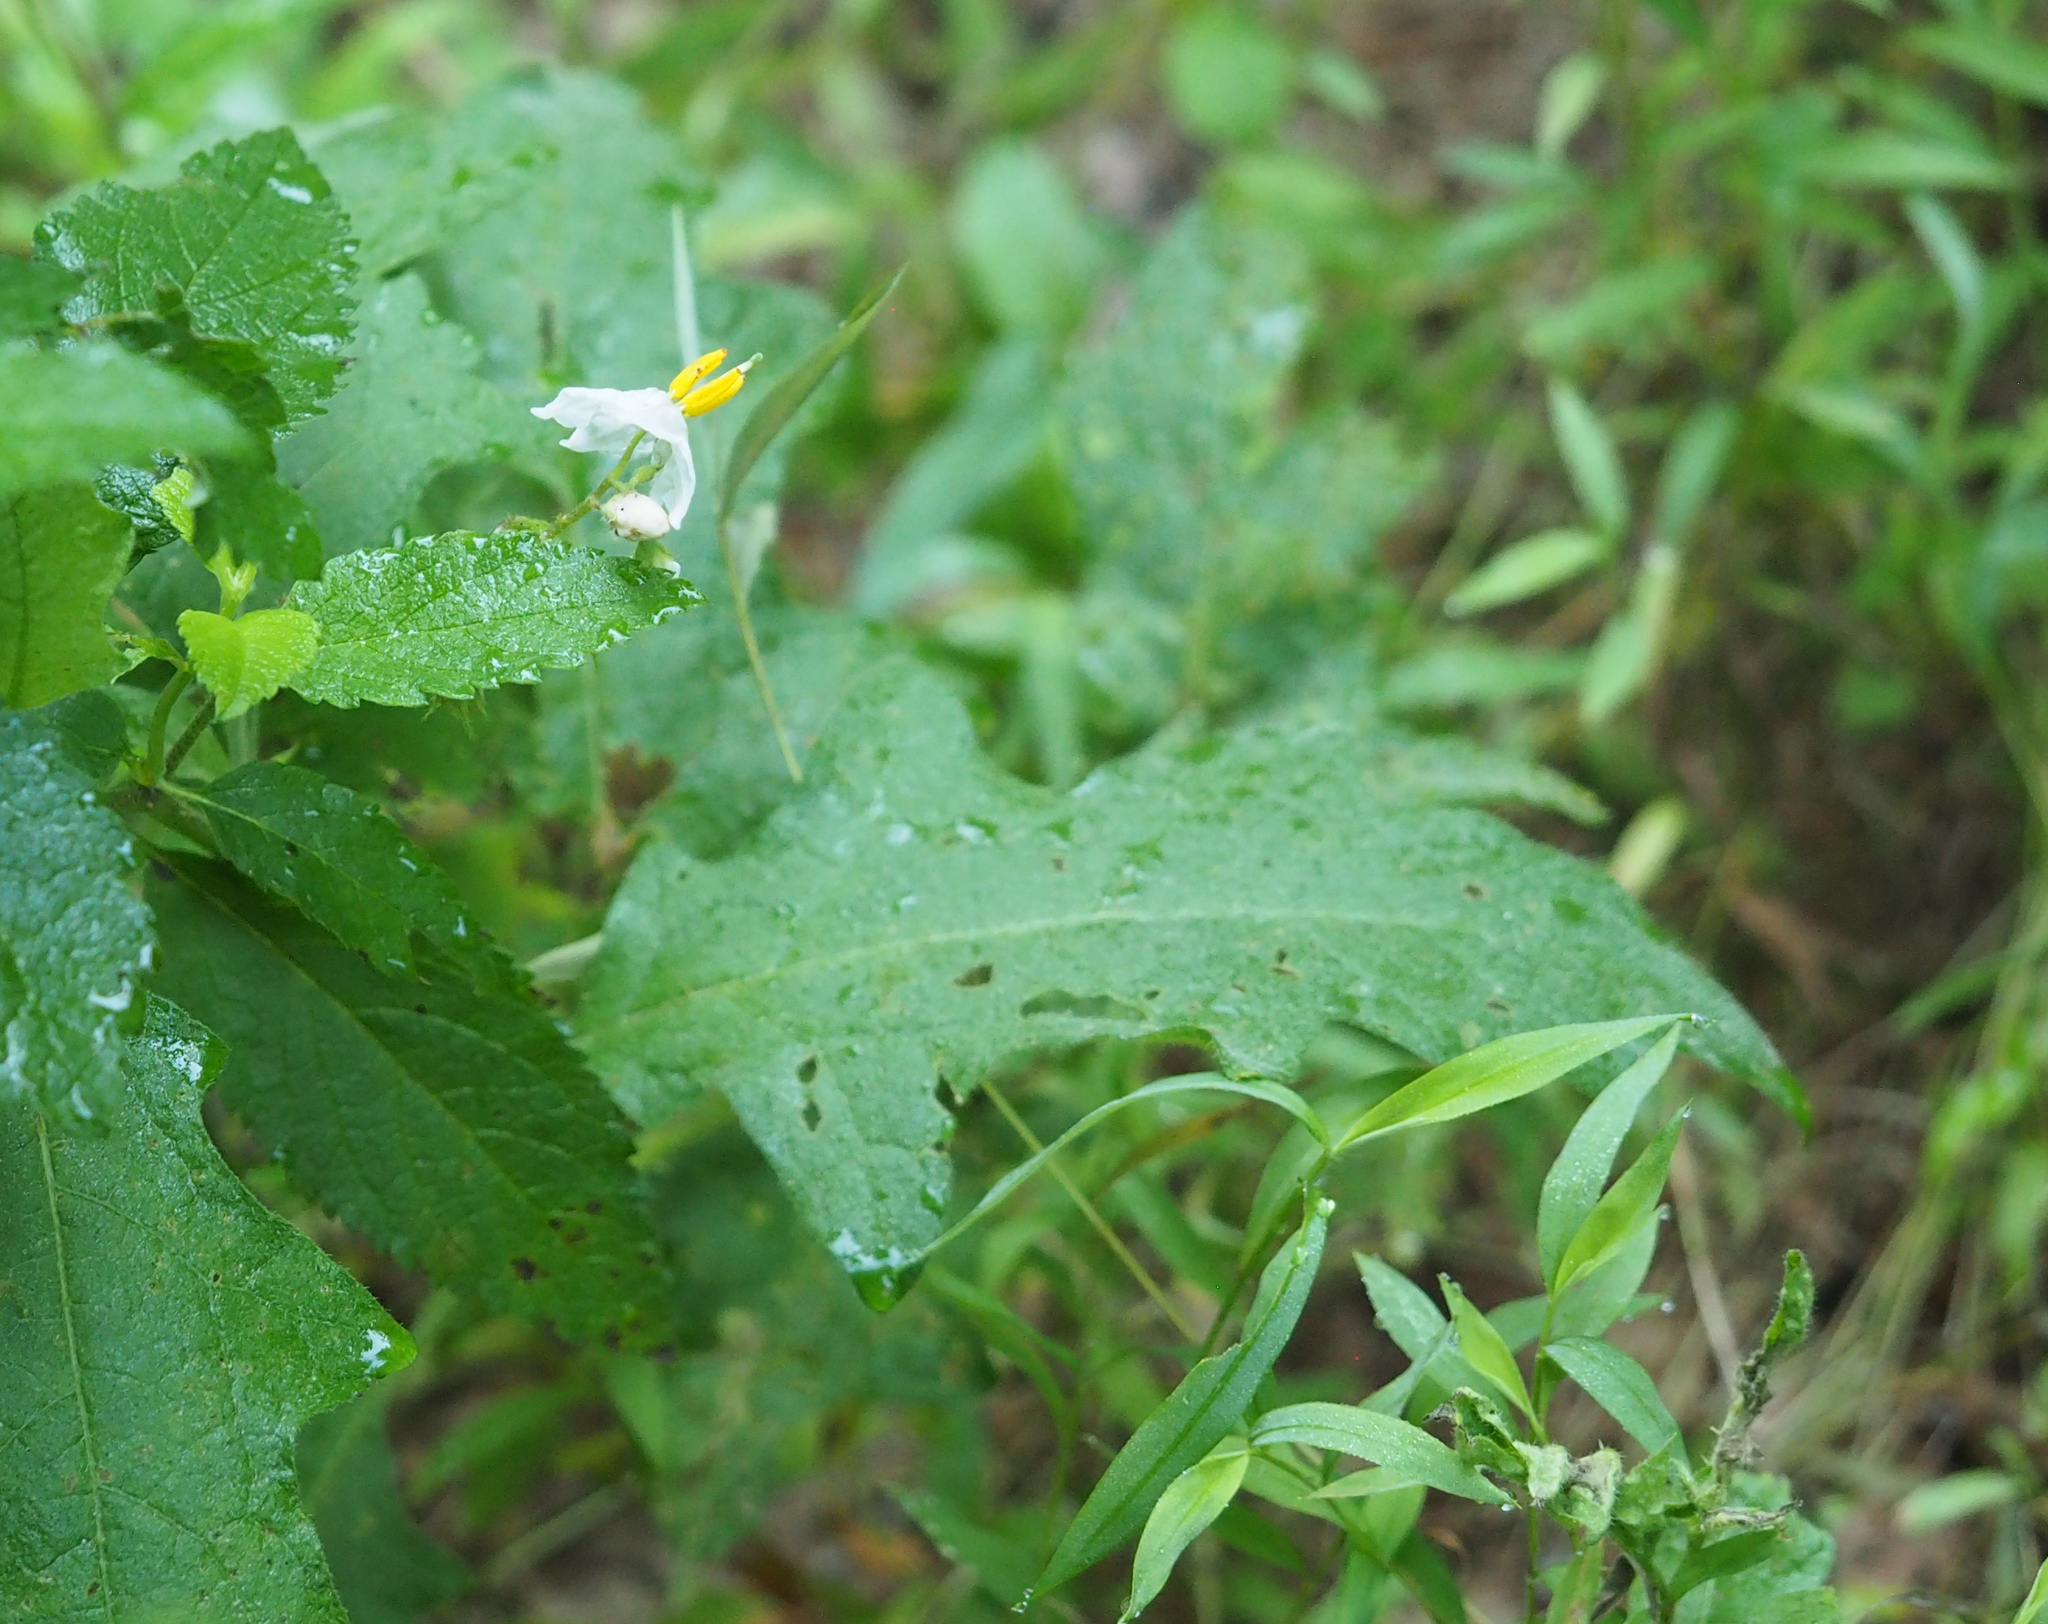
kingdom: Plantae
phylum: Tracheophyta
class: Magnoliopsida
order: Solanales
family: Solanaceae
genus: Solanum
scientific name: Solanum carolinense
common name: Horse-nettle
